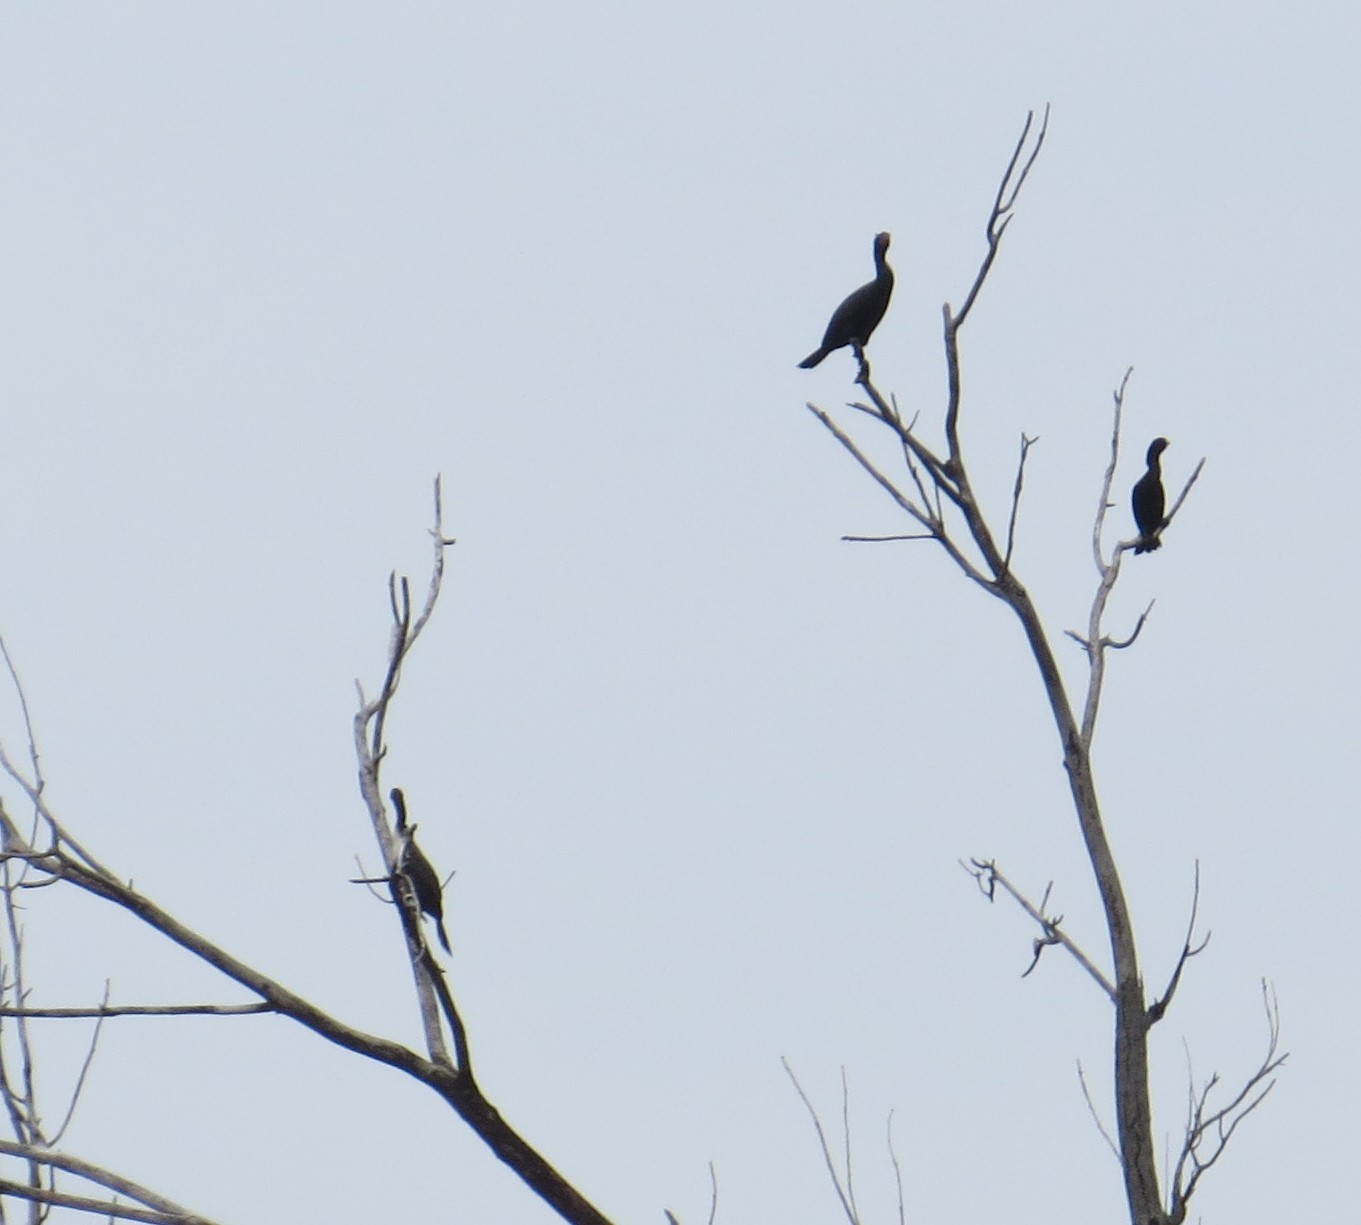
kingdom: Animalia
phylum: Chordata
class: Aves
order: Suliformes
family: Phalacrocoracidae
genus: Phalacrocorax
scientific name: Phalacrocorax auritus
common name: Double-crested cormorant
